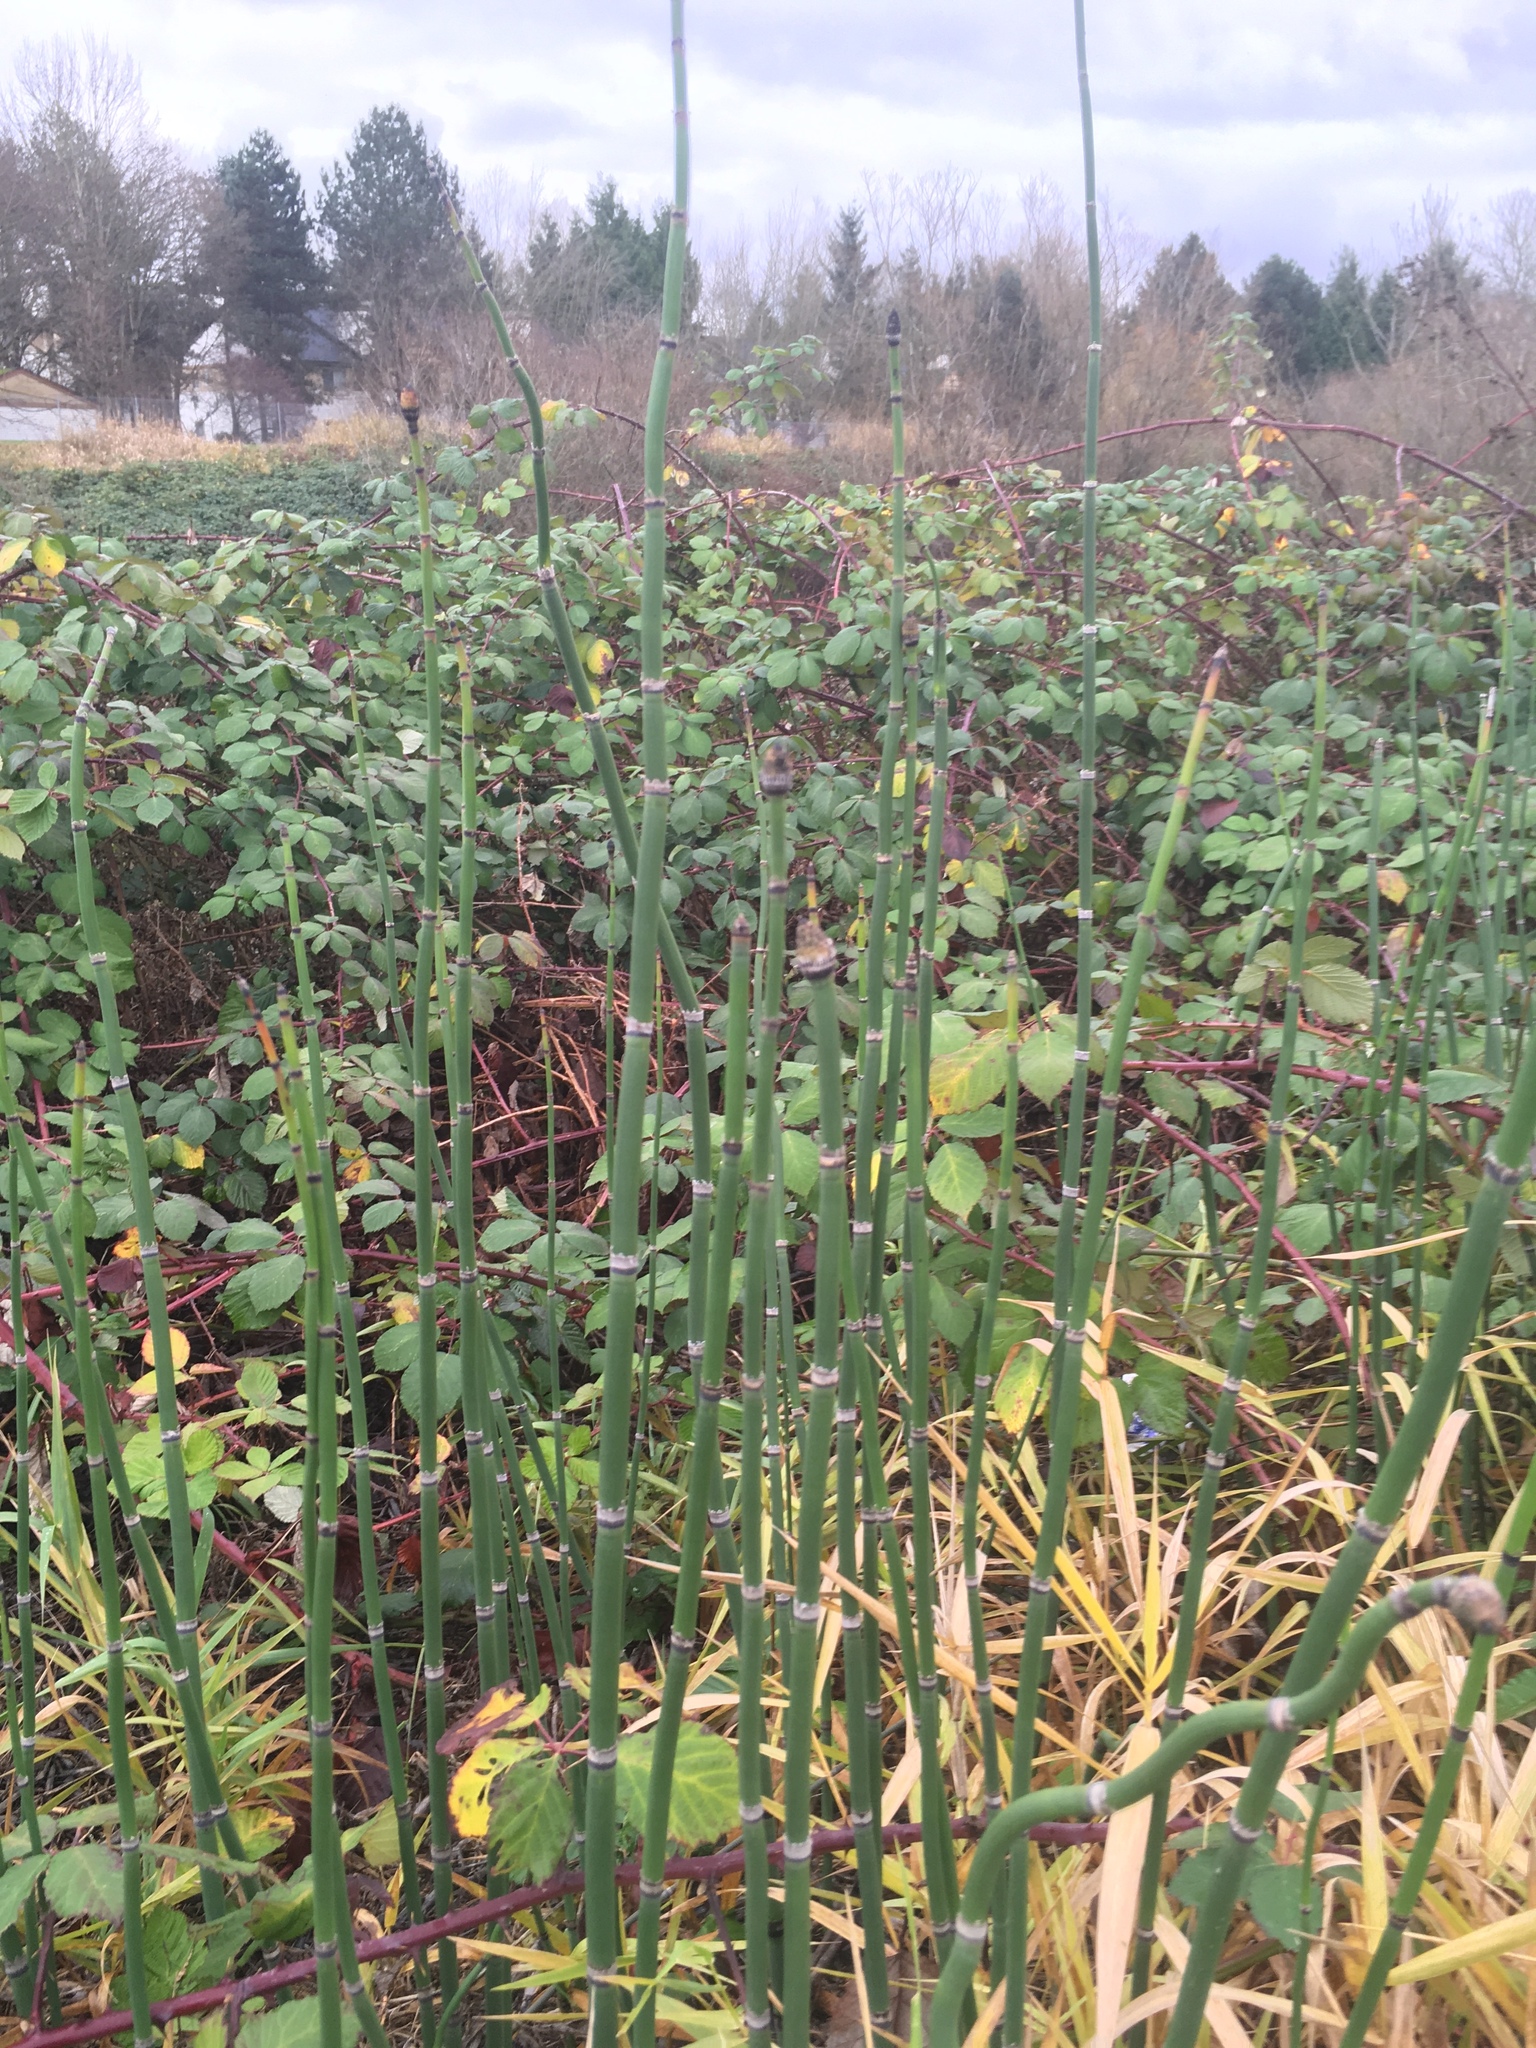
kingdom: Plantae
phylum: Tracheophyta
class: Polypodiopsida
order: Equisetales
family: Equisetaceae
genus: Equisetum
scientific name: Equisetum hyemale
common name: Rough horsetail
